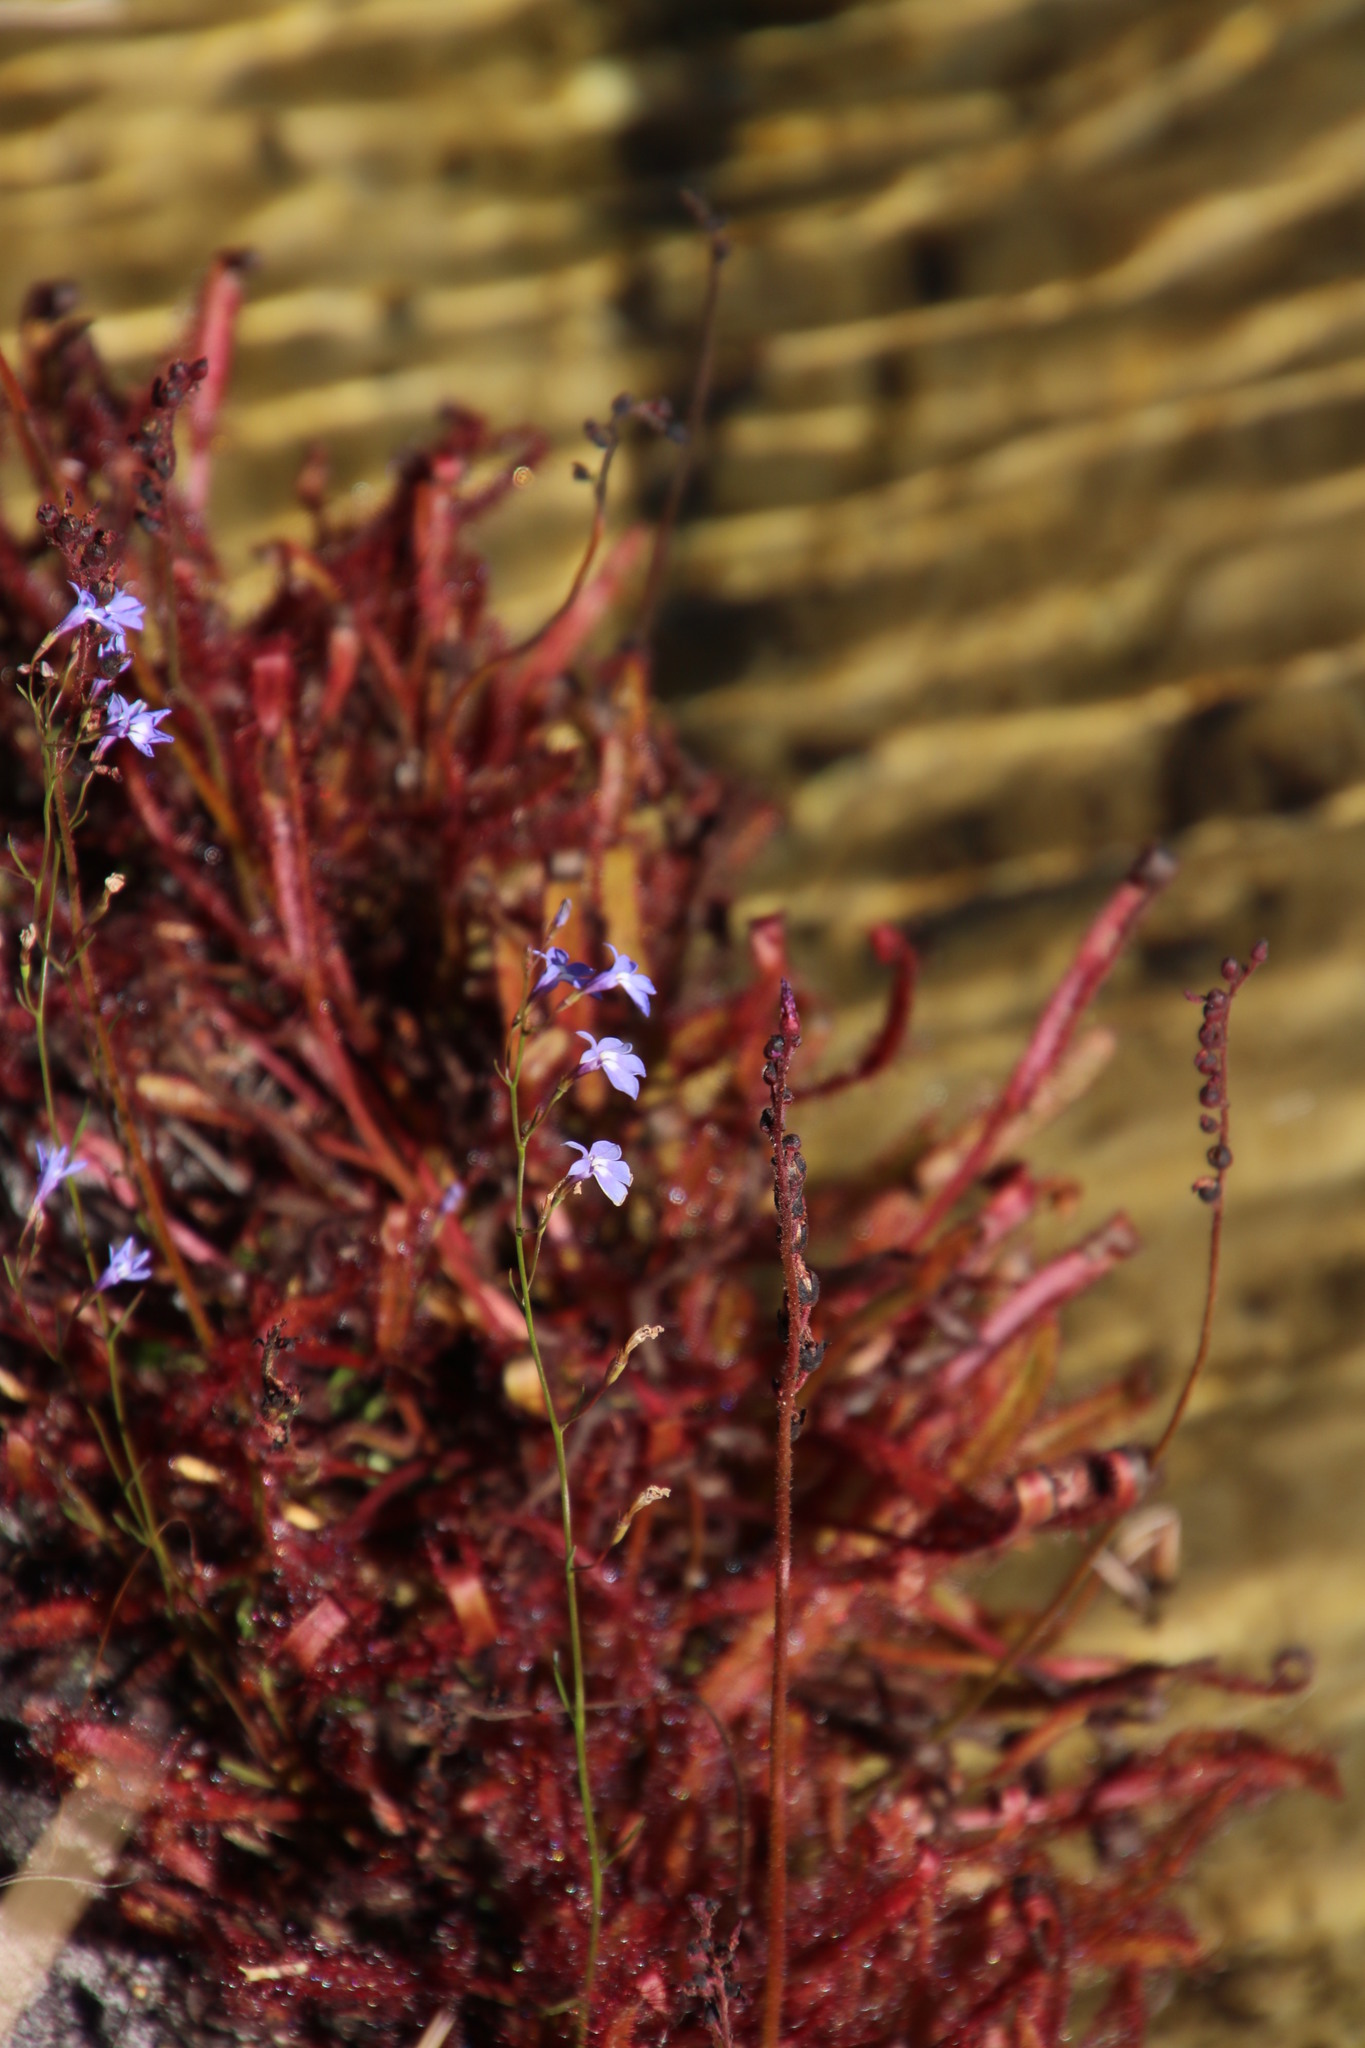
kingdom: Plantae
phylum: Tracheophyta
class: Magnoliopsida
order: Caryophyllales
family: Droseraceae
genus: Drosera
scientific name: Drosera capensis
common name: Cape sundew
